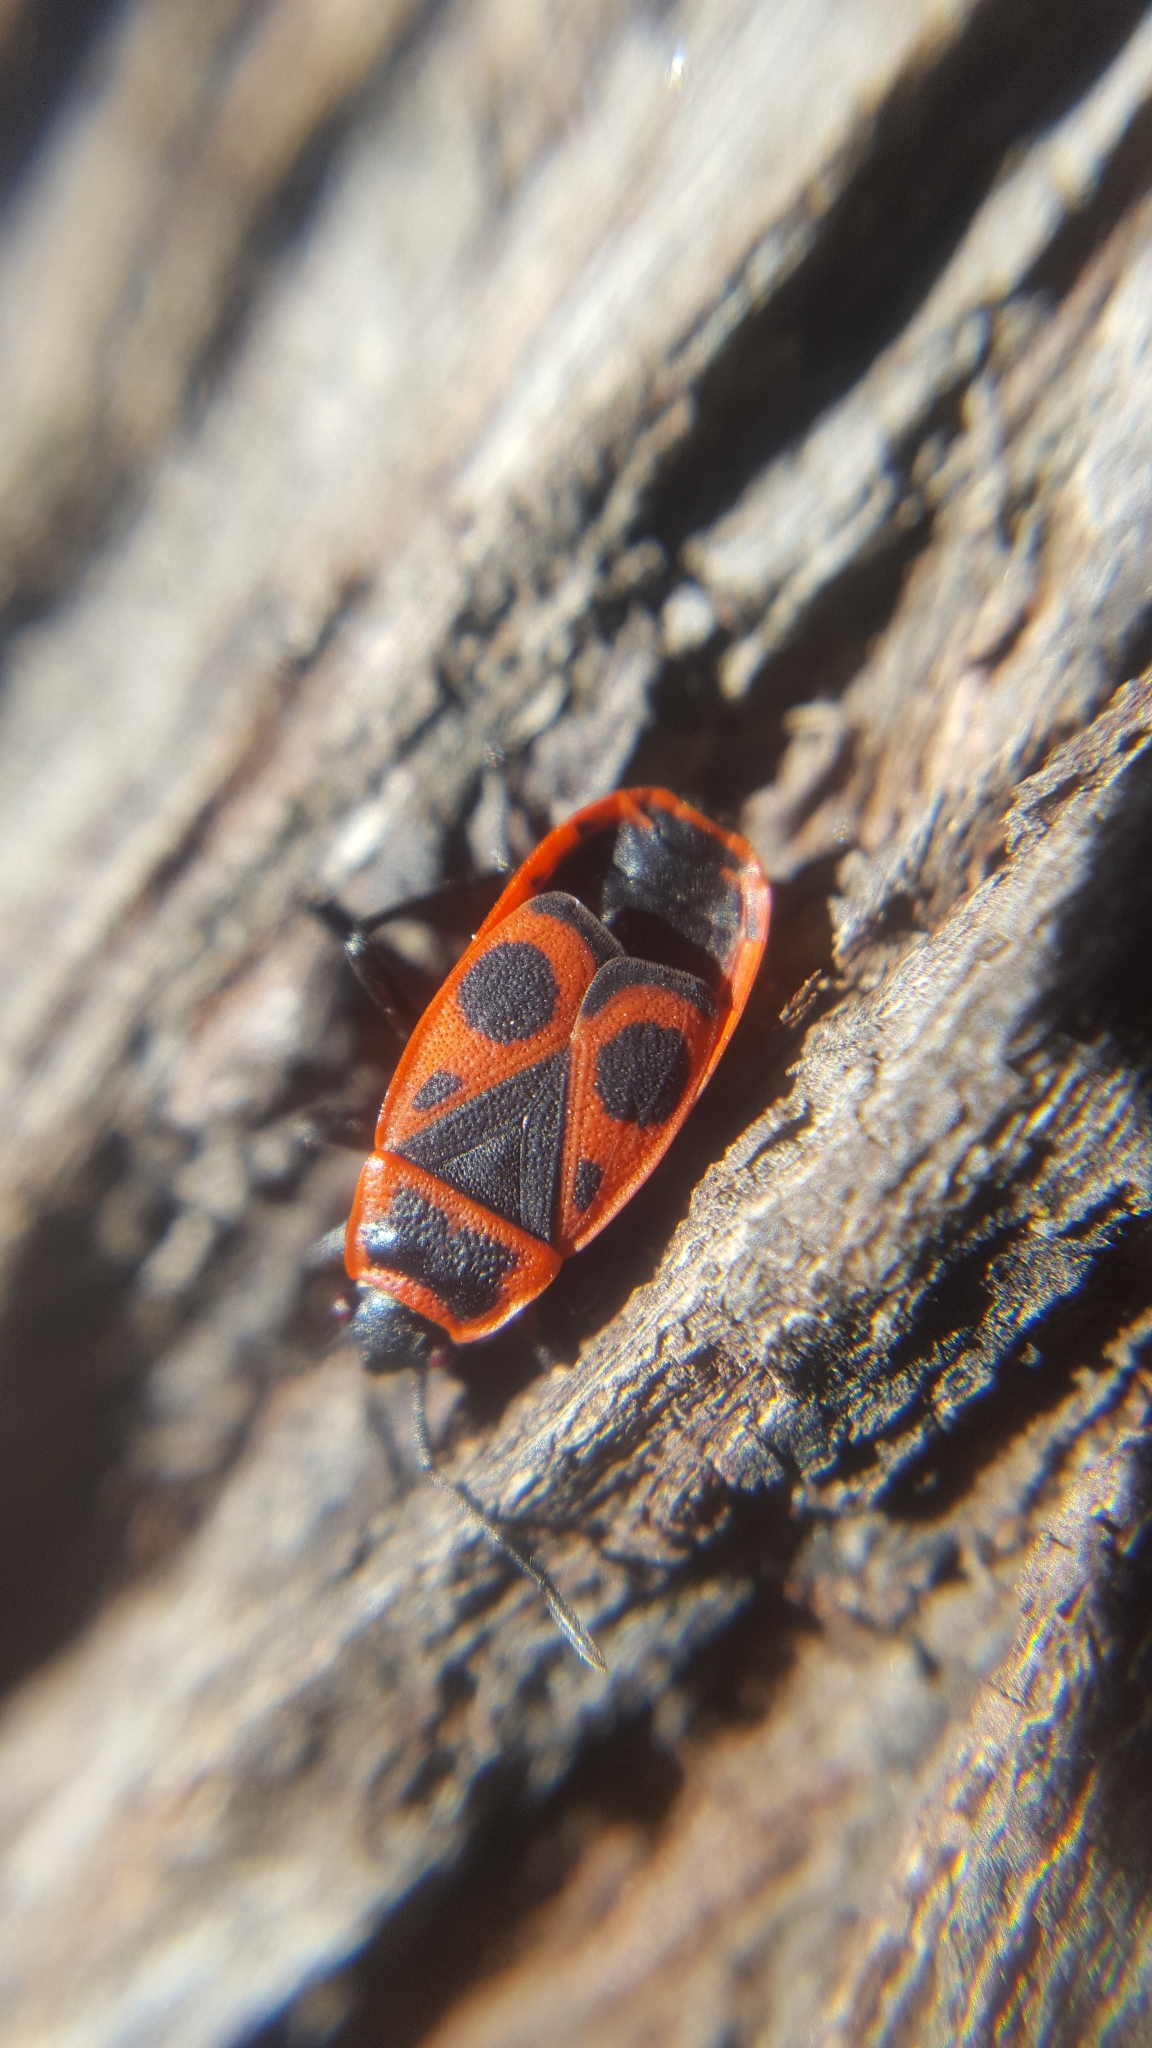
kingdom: Animalia
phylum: Arthropoda
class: Insecta
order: Hemiptera
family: Pyrrhocoridae
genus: Pyrrhocoris
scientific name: Pyrrhocoris apterus
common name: Firebug
